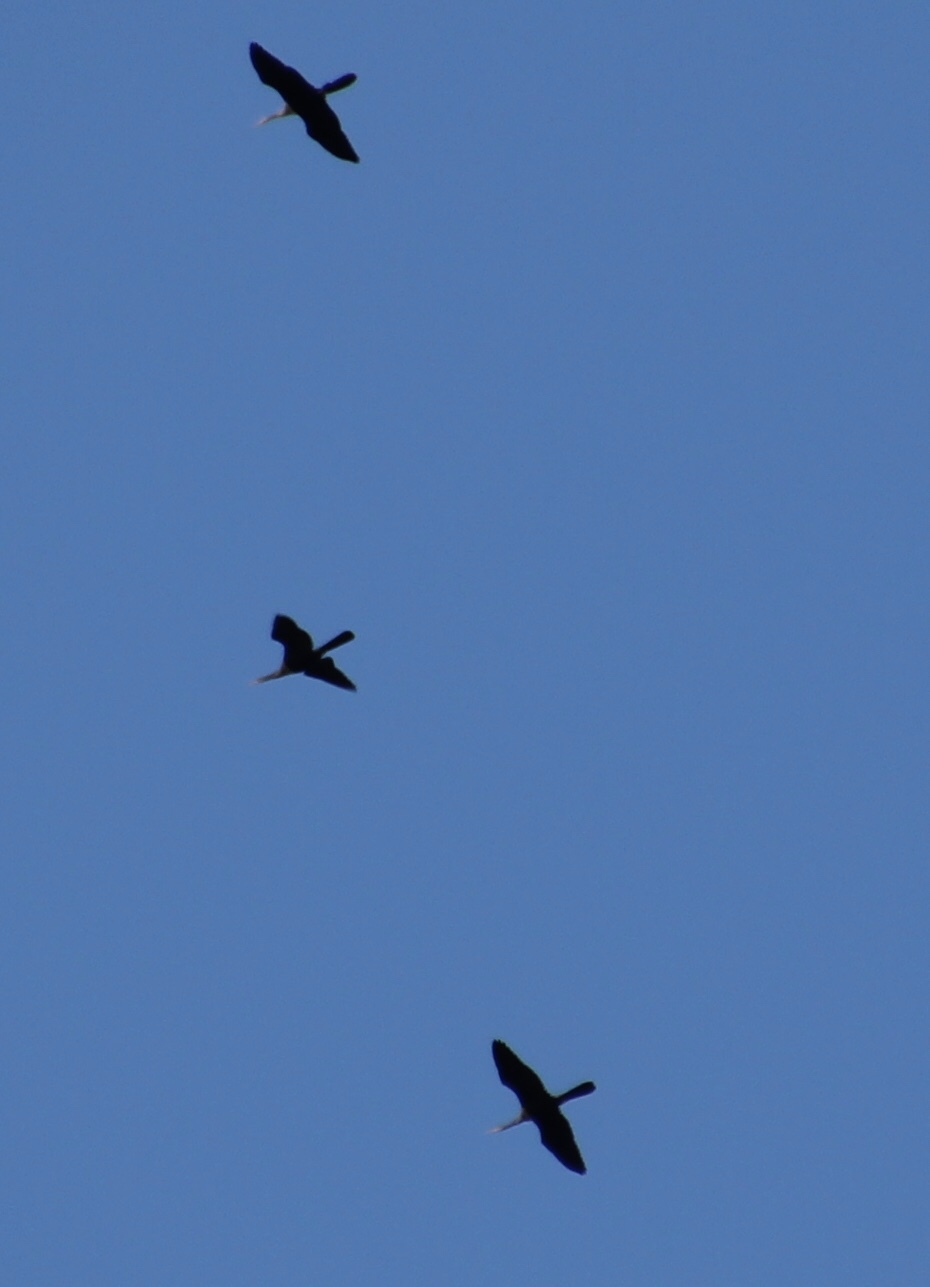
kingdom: Animalia
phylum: Chordata
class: Aves
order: Suliformes
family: Anhingidae
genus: Anhinga
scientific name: Anhinga anhinga
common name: Anhinga
